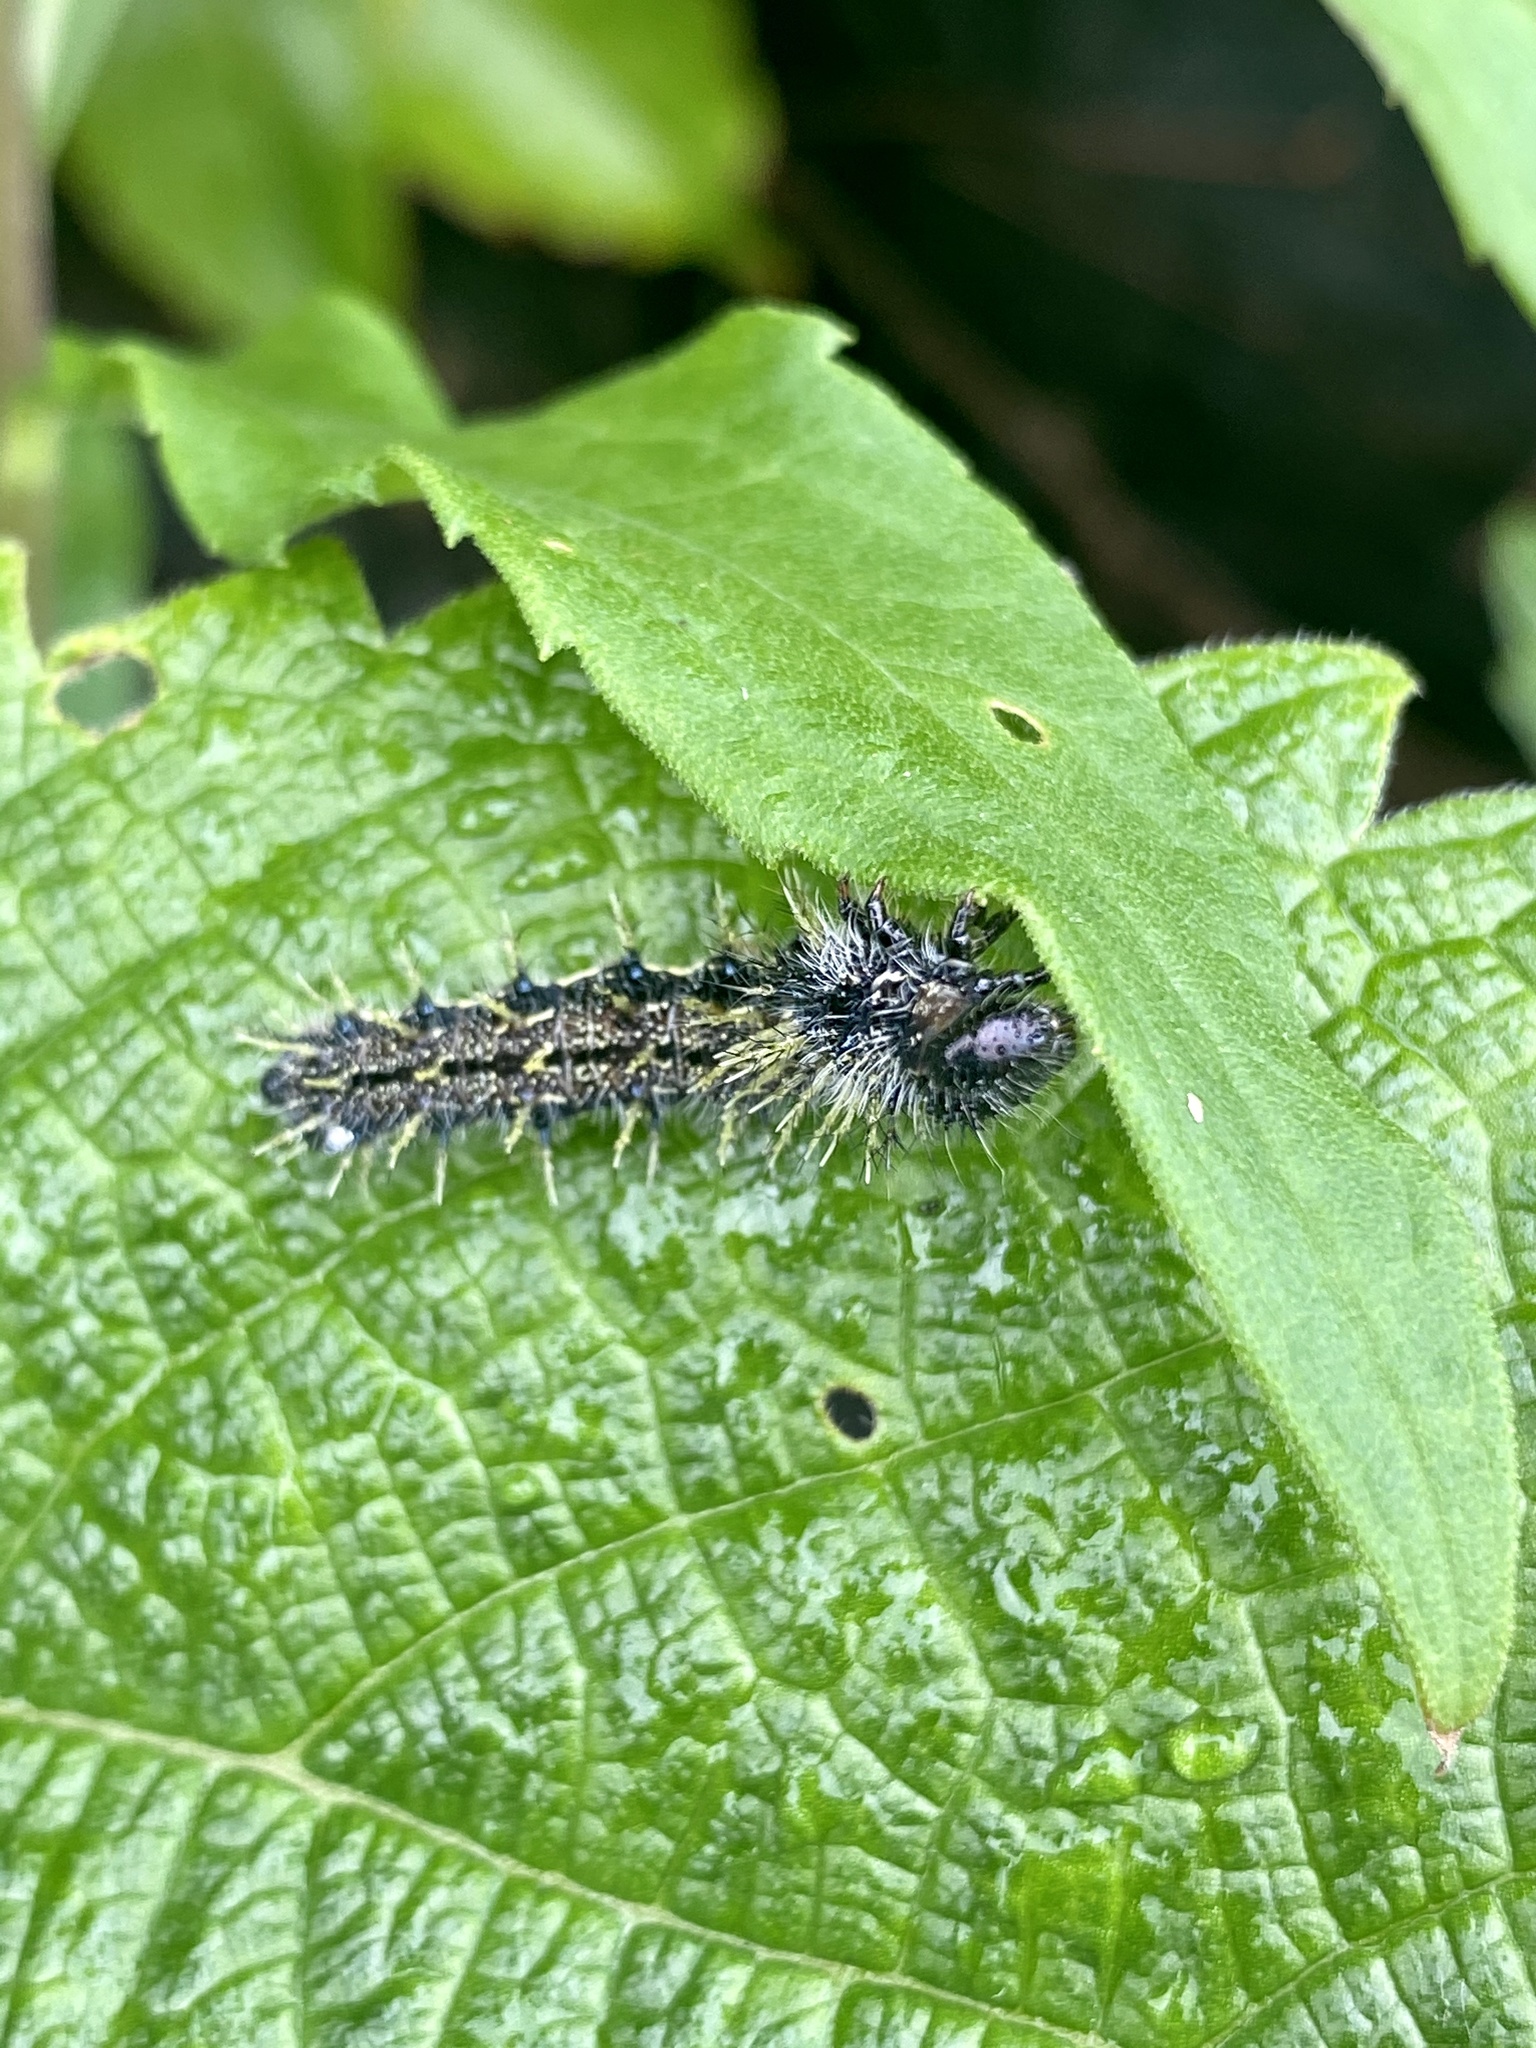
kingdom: Animalia
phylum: Arthropoda
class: Insecta
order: Lepidoptera
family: Nymphalidae
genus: Vanessa
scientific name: Vanessa indica
